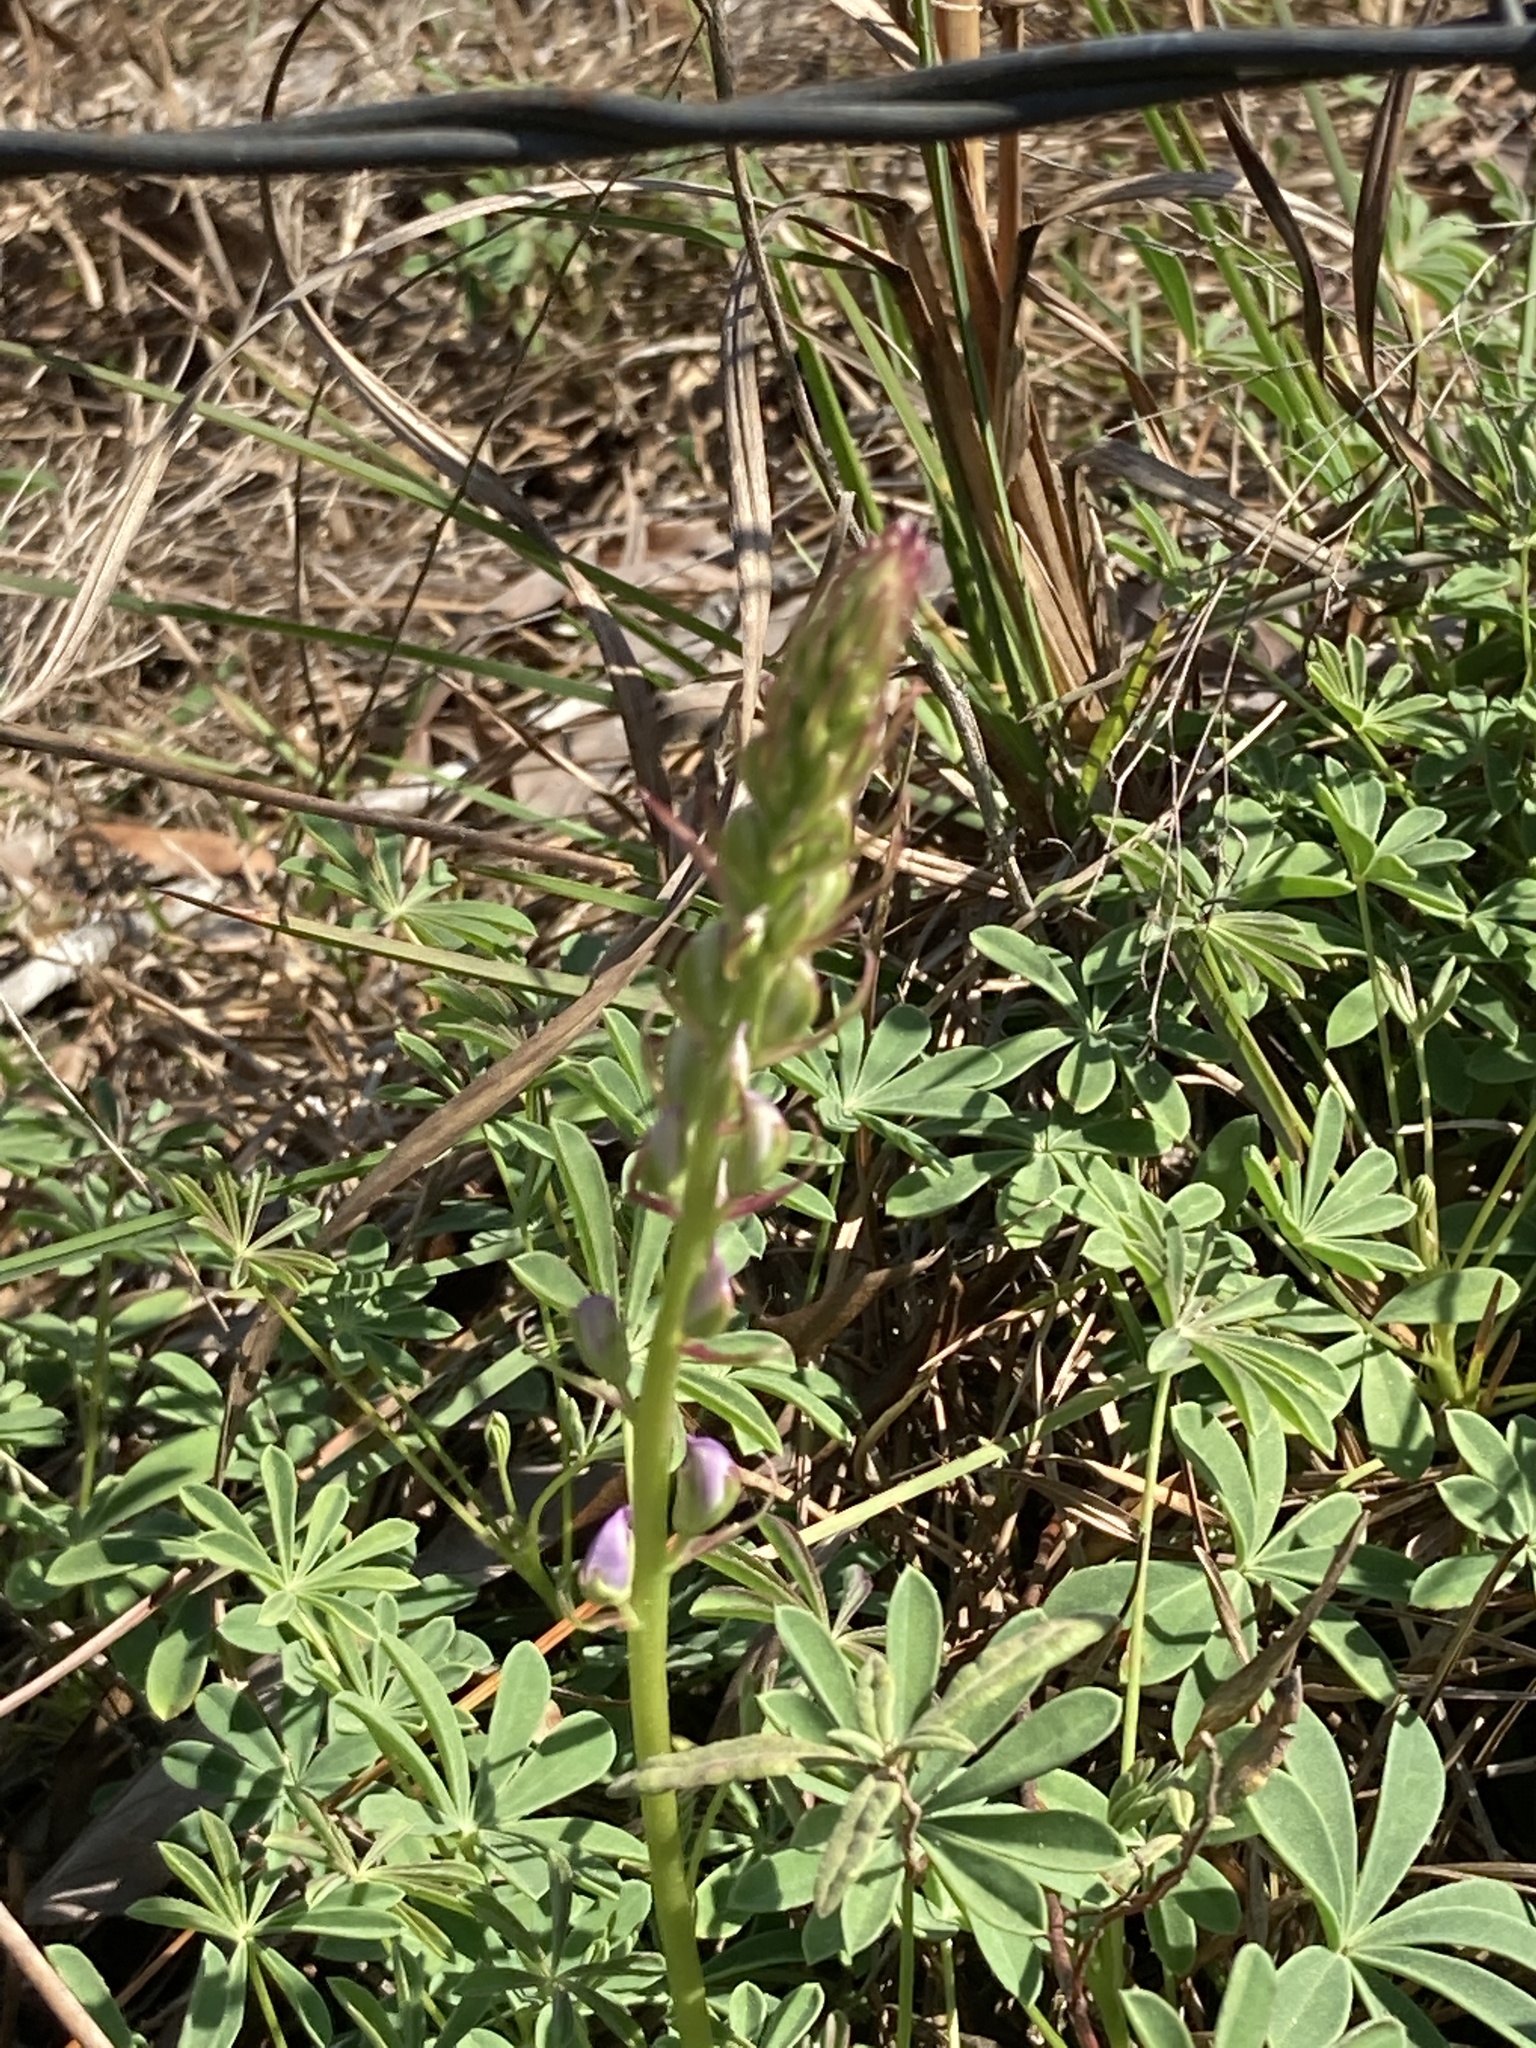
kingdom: Plantae
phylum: Tracheophyta
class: Magnoliopsida
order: Fabales
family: Fabaceae
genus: Lupinus
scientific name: Lupinus perennis
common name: Sundial lupine
